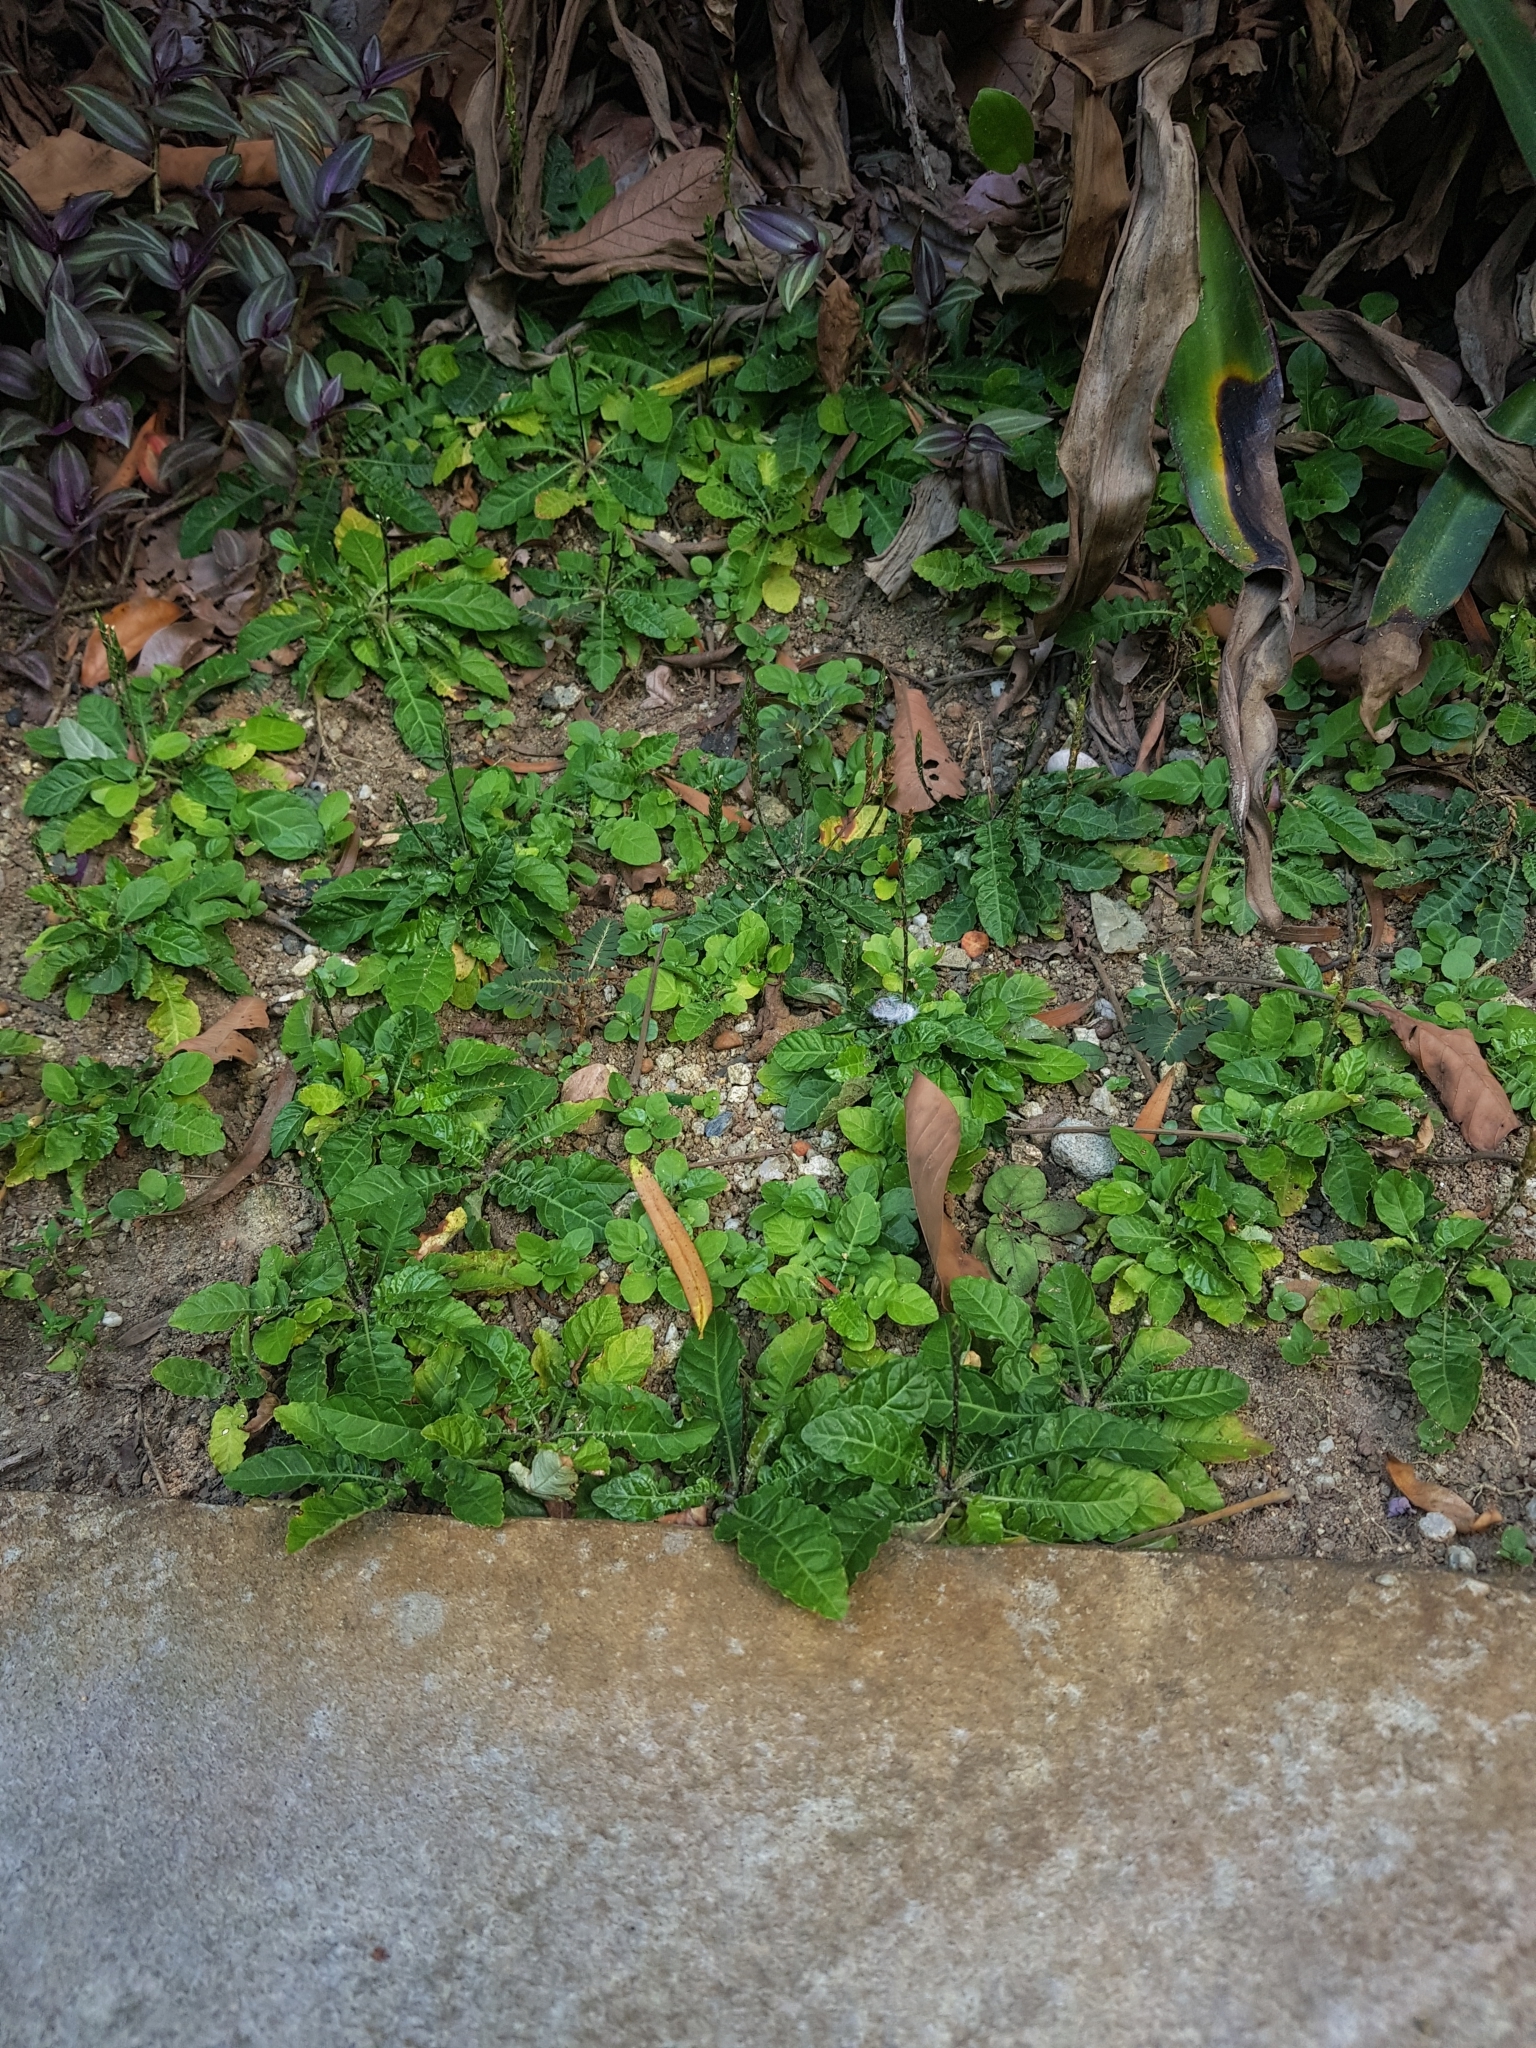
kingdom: Plantae
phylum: Tracheophyta
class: Magnoliopsida
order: Lamiales
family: Acanthaceae
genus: Elytraria
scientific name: Elytraria acaulis
